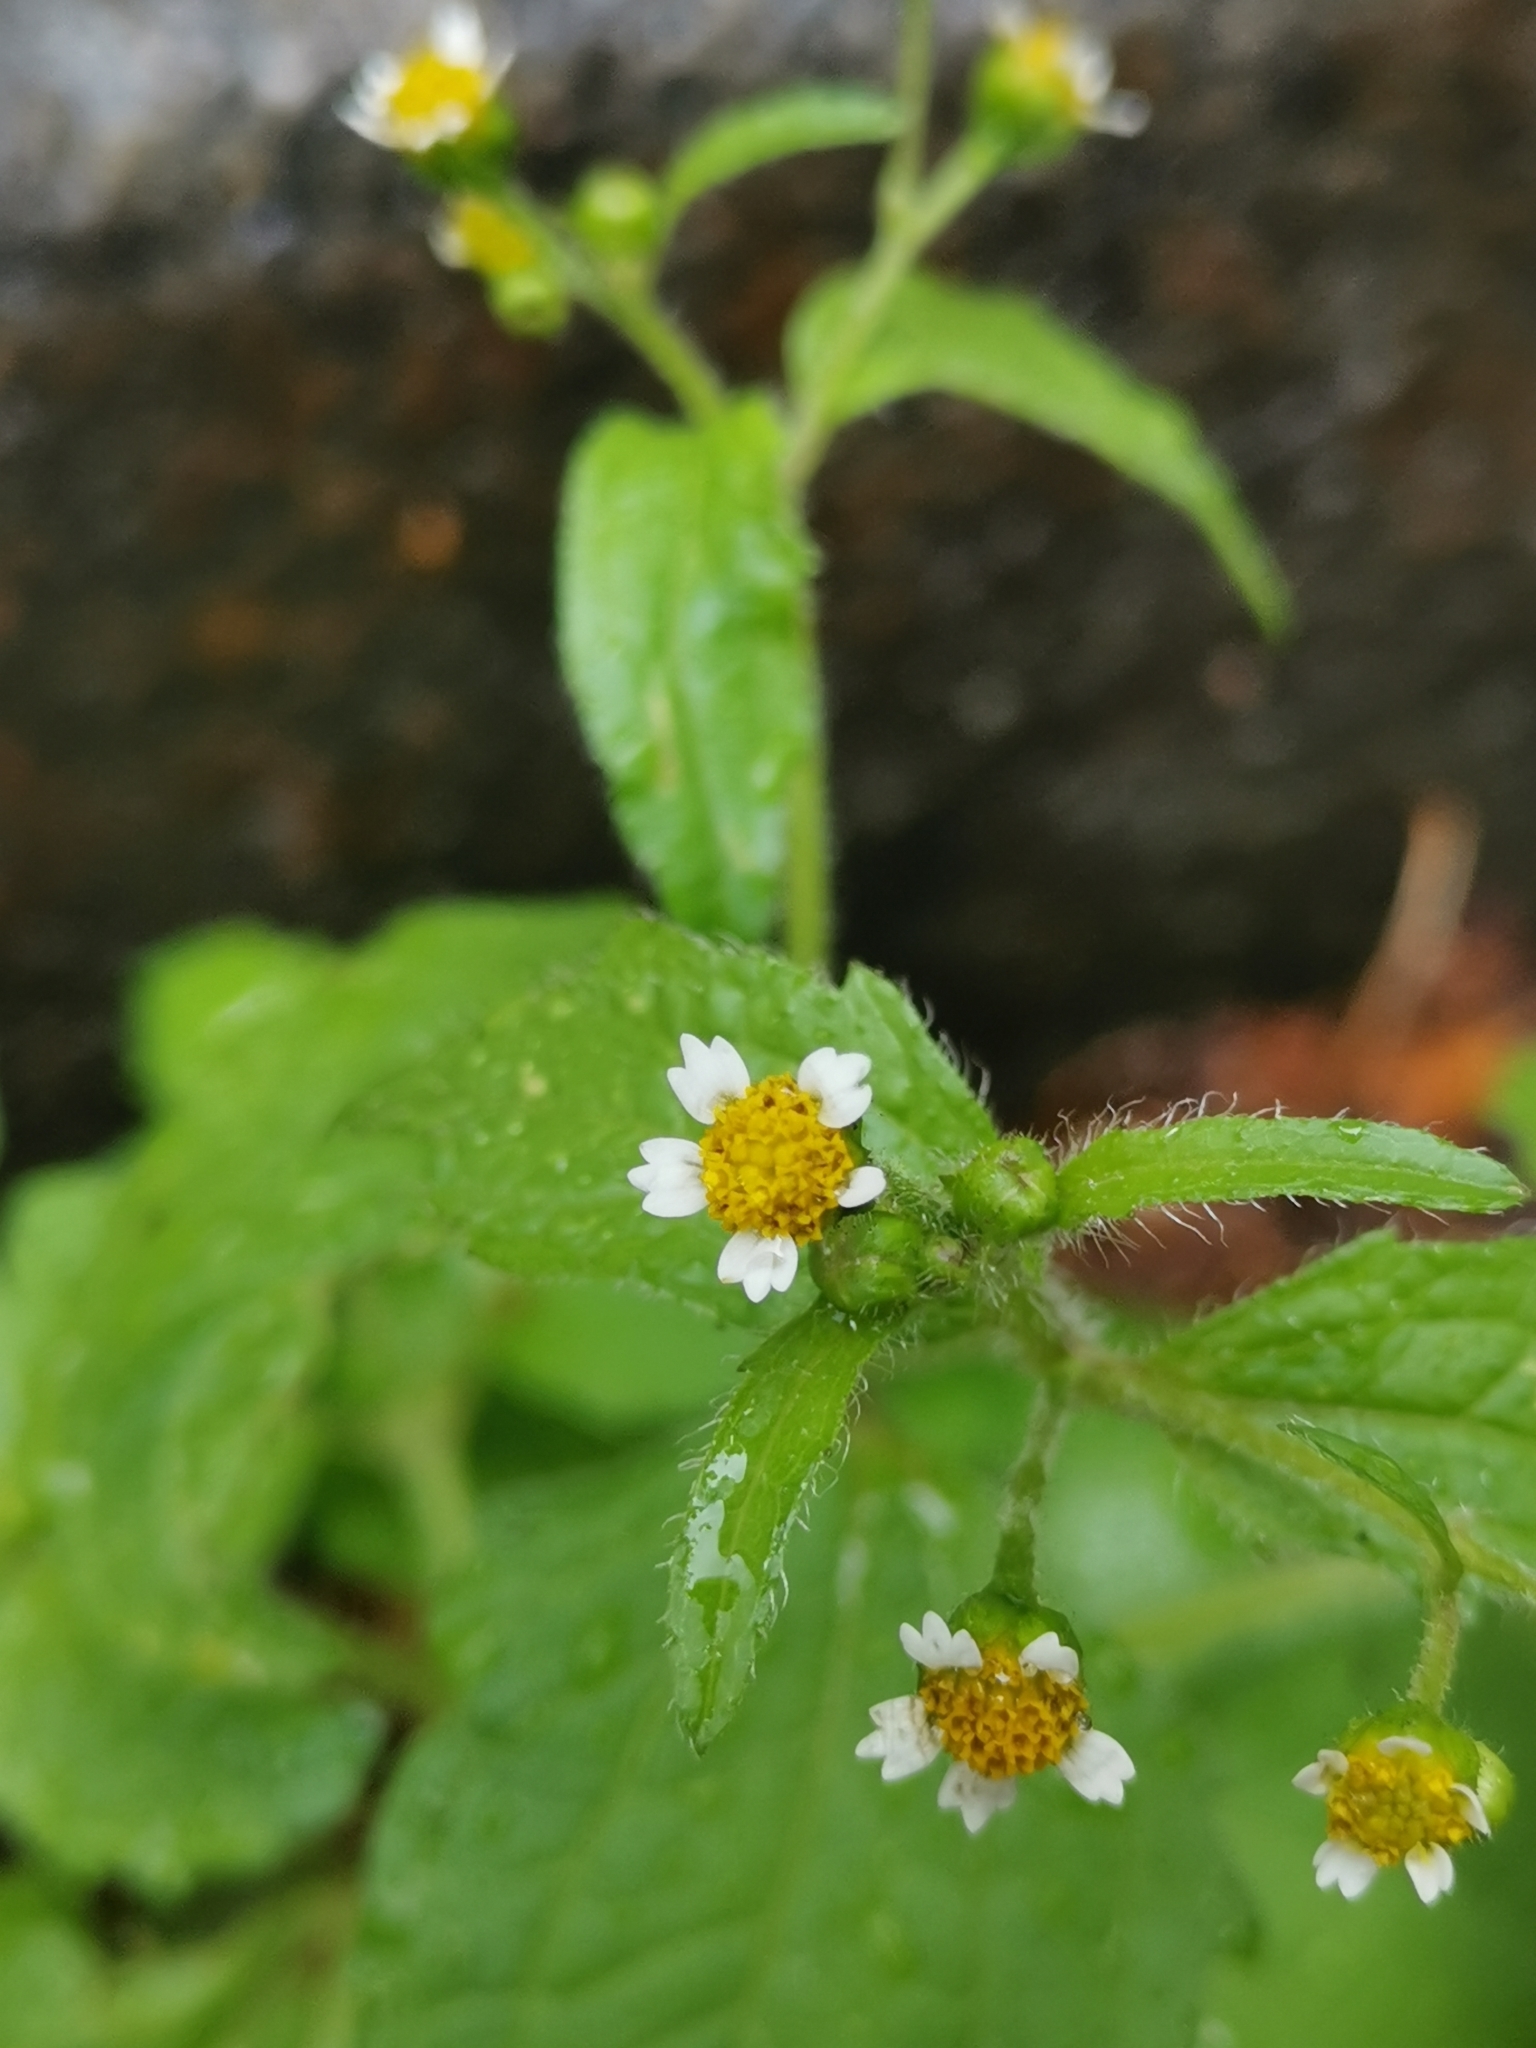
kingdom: Plantae
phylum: Tracheophyta
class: Magnoliopsida
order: Asterales
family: Asteraceae
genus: Galinsoga
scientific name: Galinsoga quadriradiata
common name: Shaggy soldier
